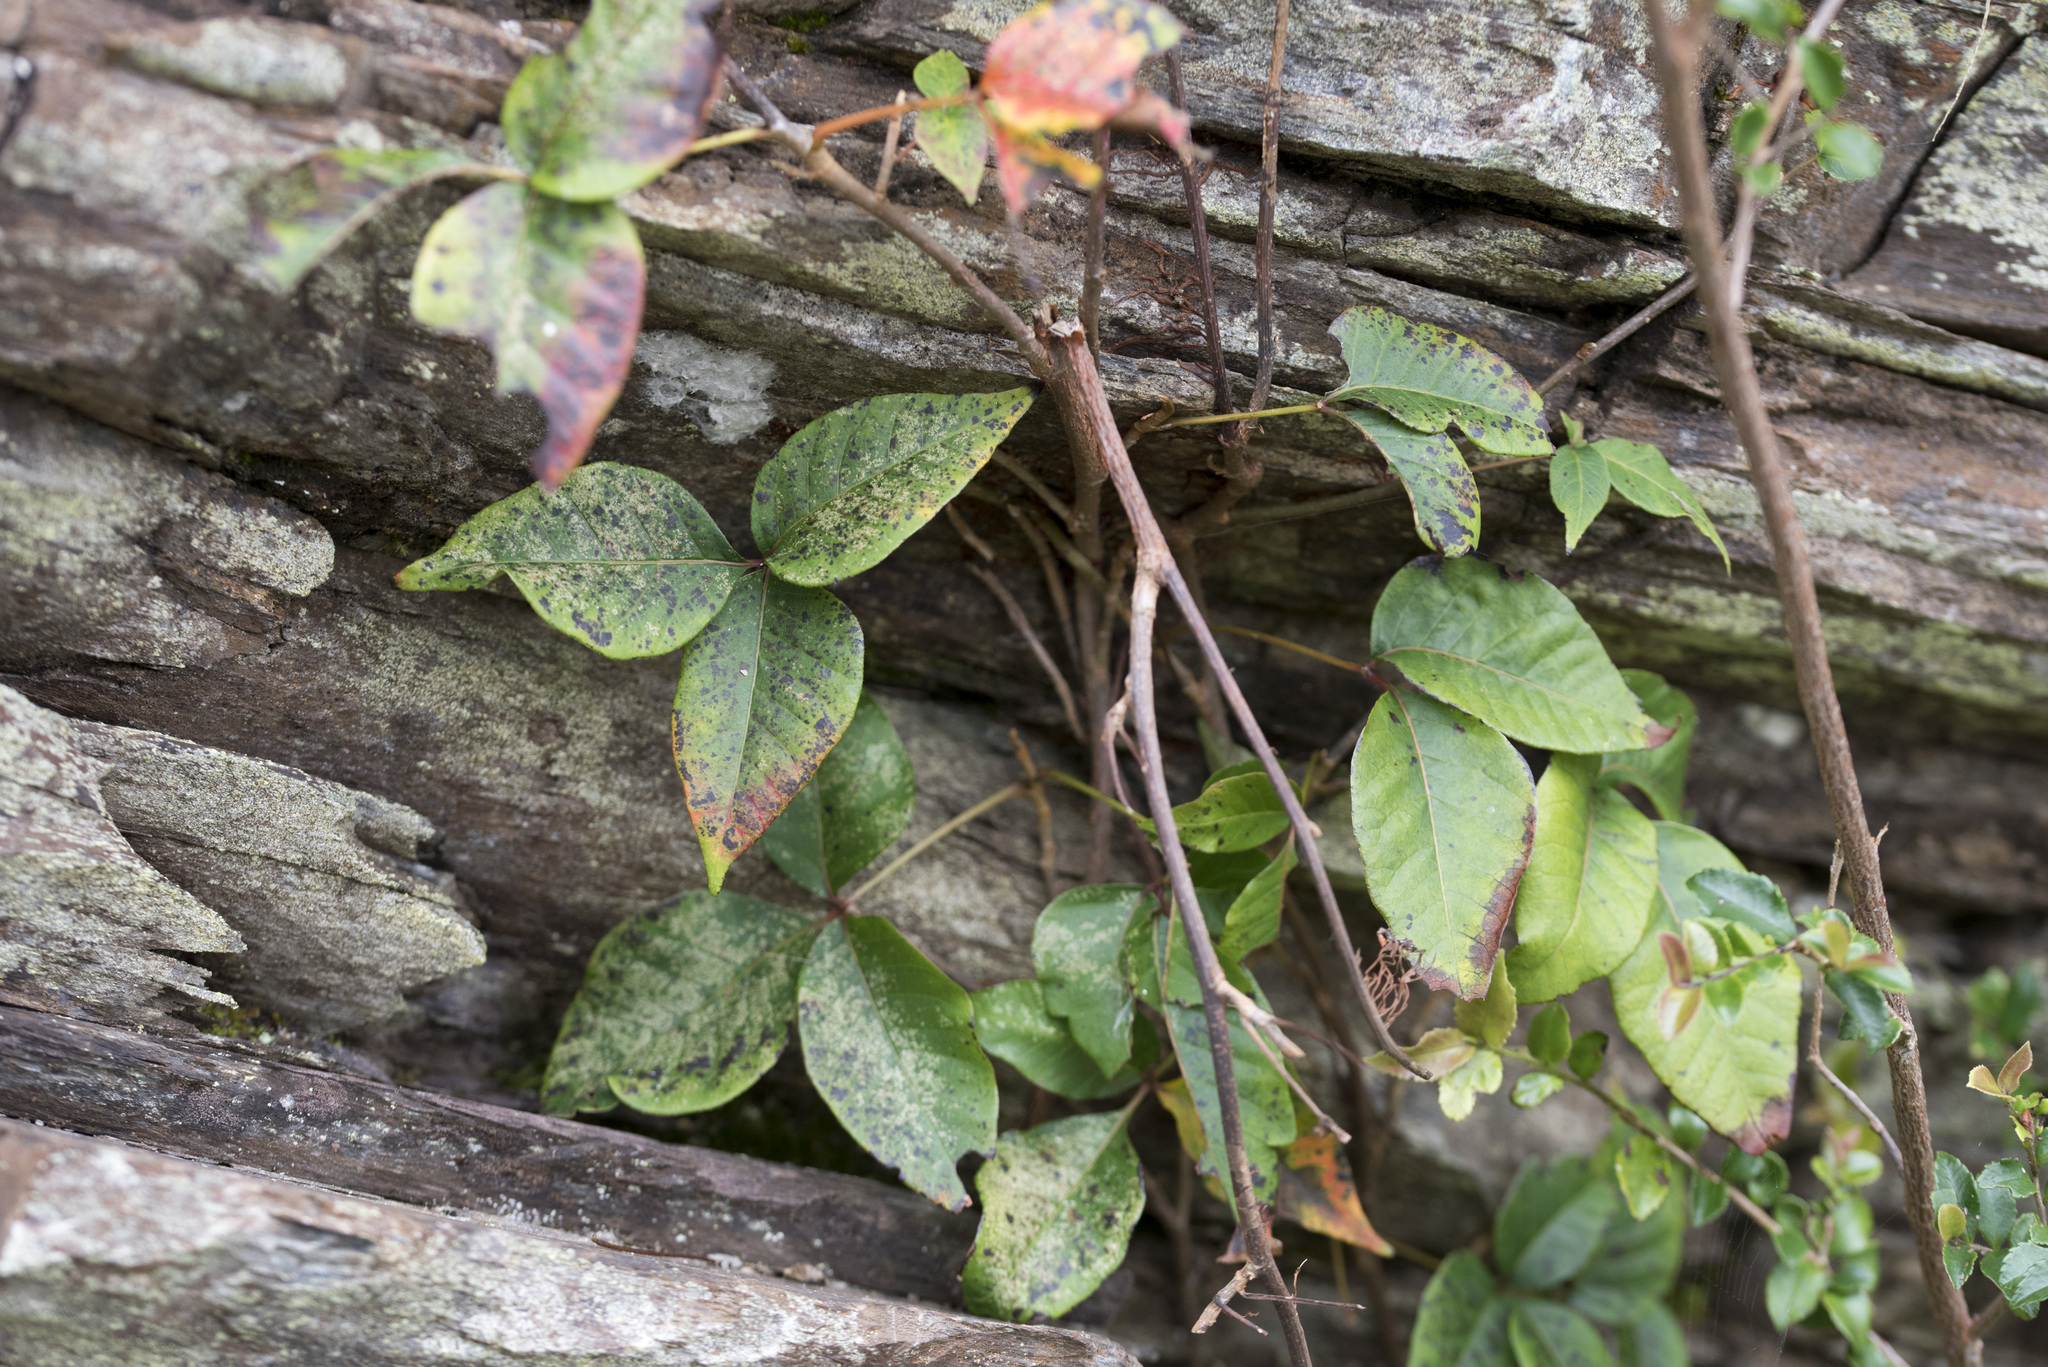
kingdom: Plantae
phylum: Tracheophyta
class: Magnoliopsida
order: Sapindales
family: Anacardiaceae
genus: Toxicodendron
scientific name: Toxicodendron orientale
